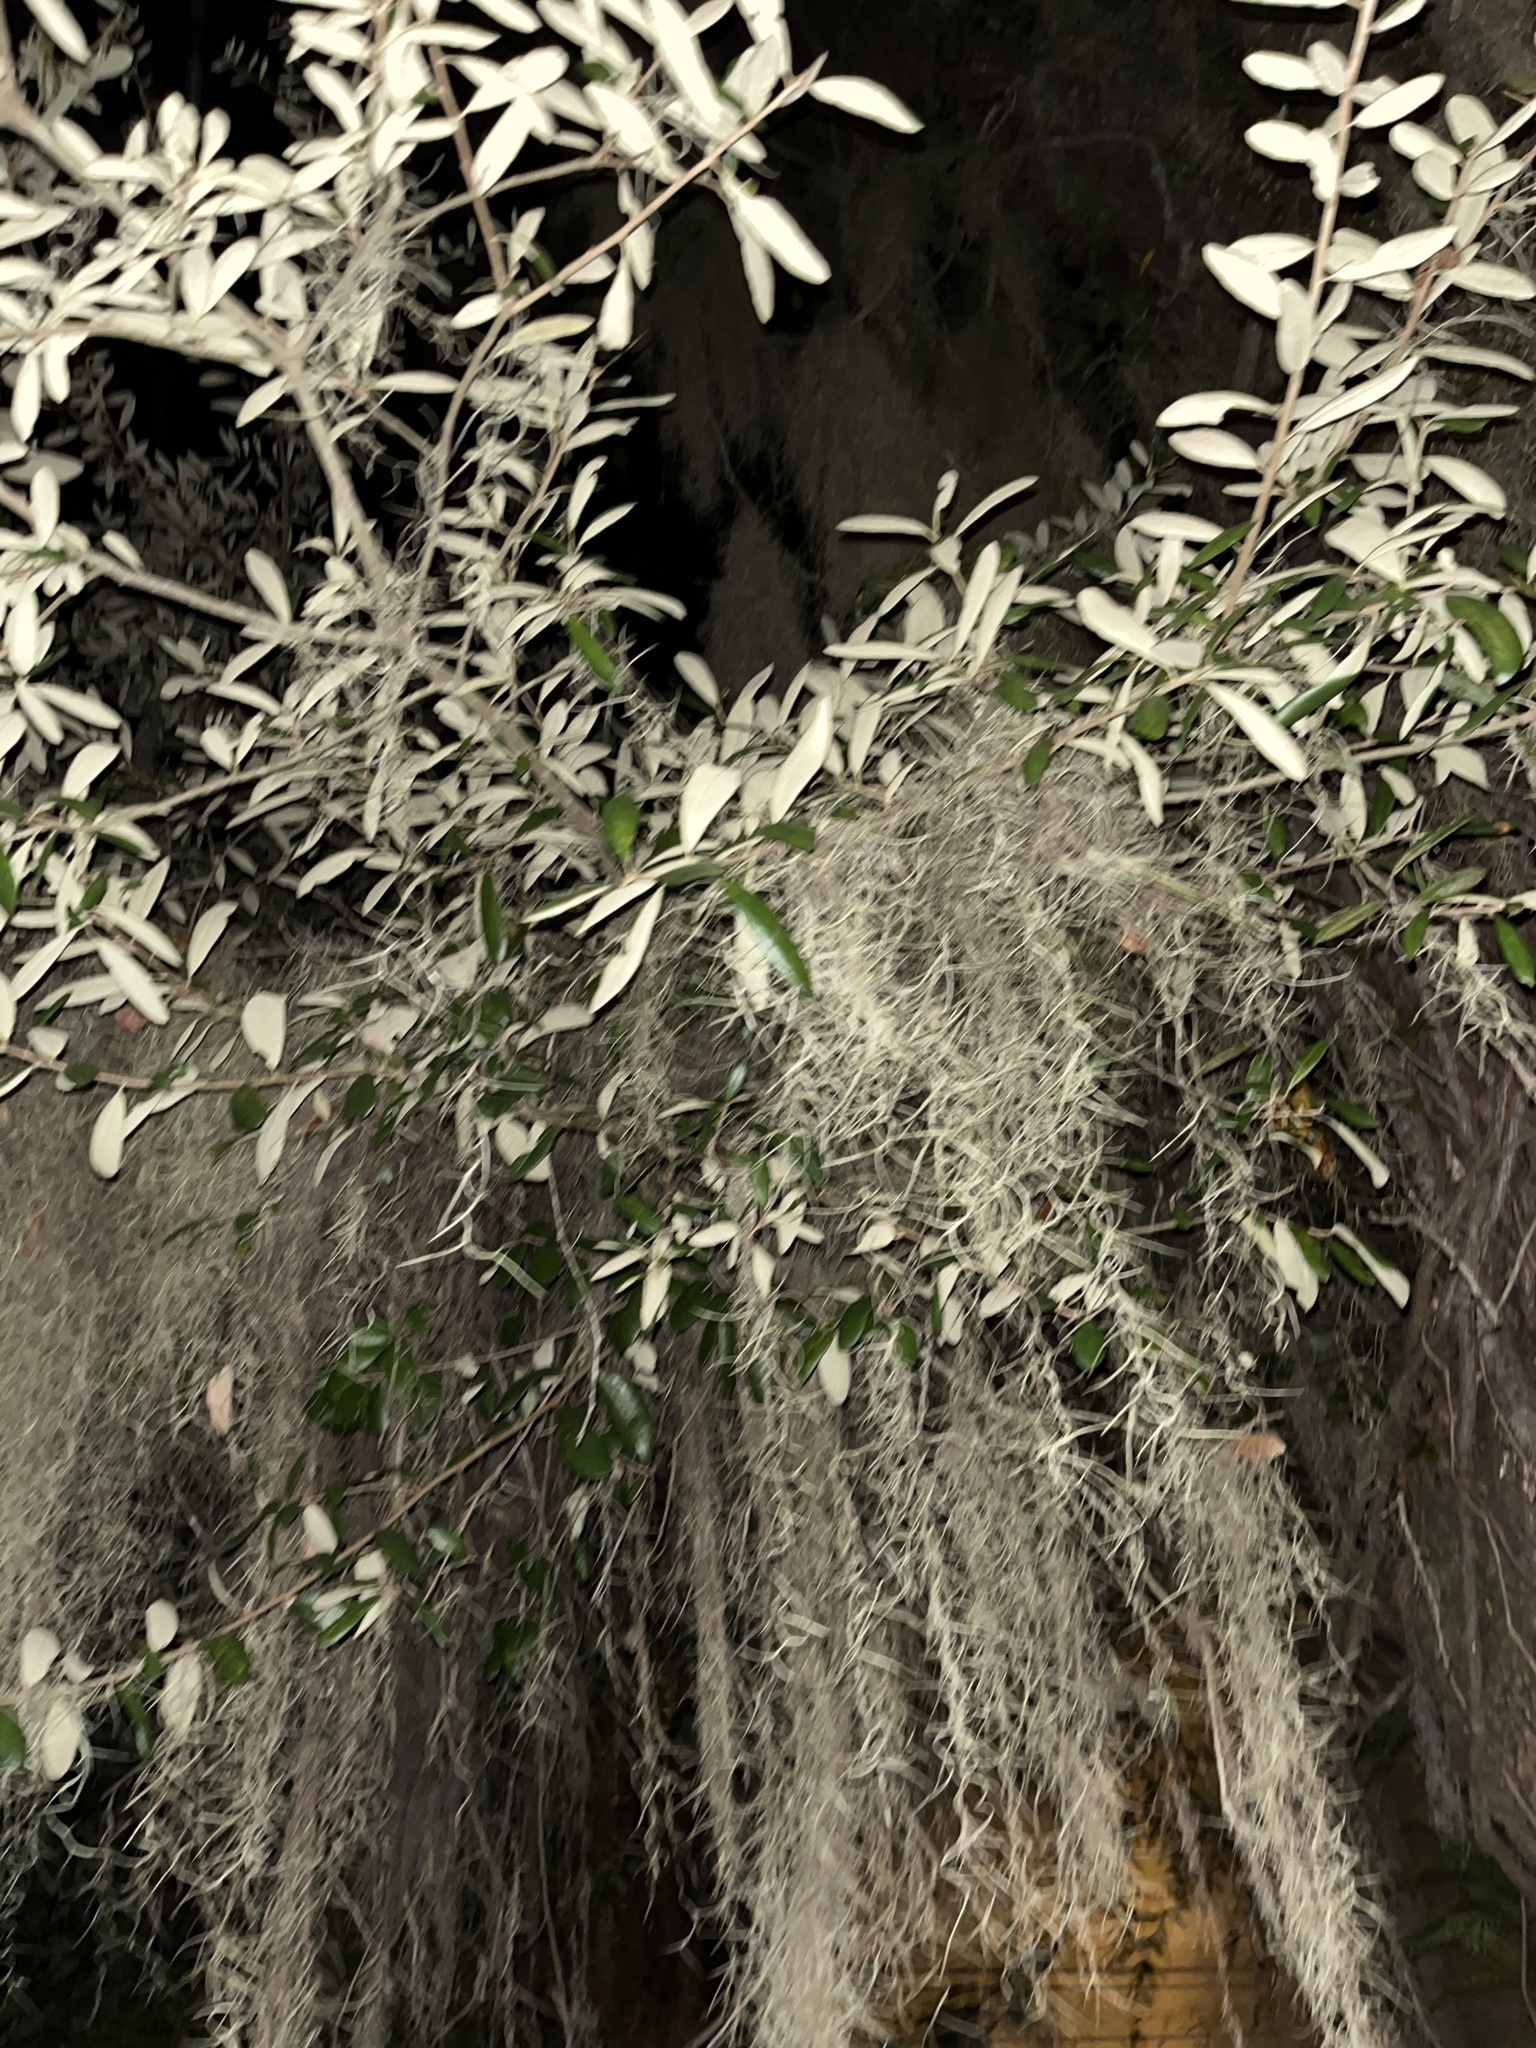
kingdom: Plantae
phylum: Tracheophyta
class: Liliopsida
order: Poales
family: Bromeliaceae
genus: Tillandsia
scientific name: Tillandsia usneoides
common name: Spanish moss
